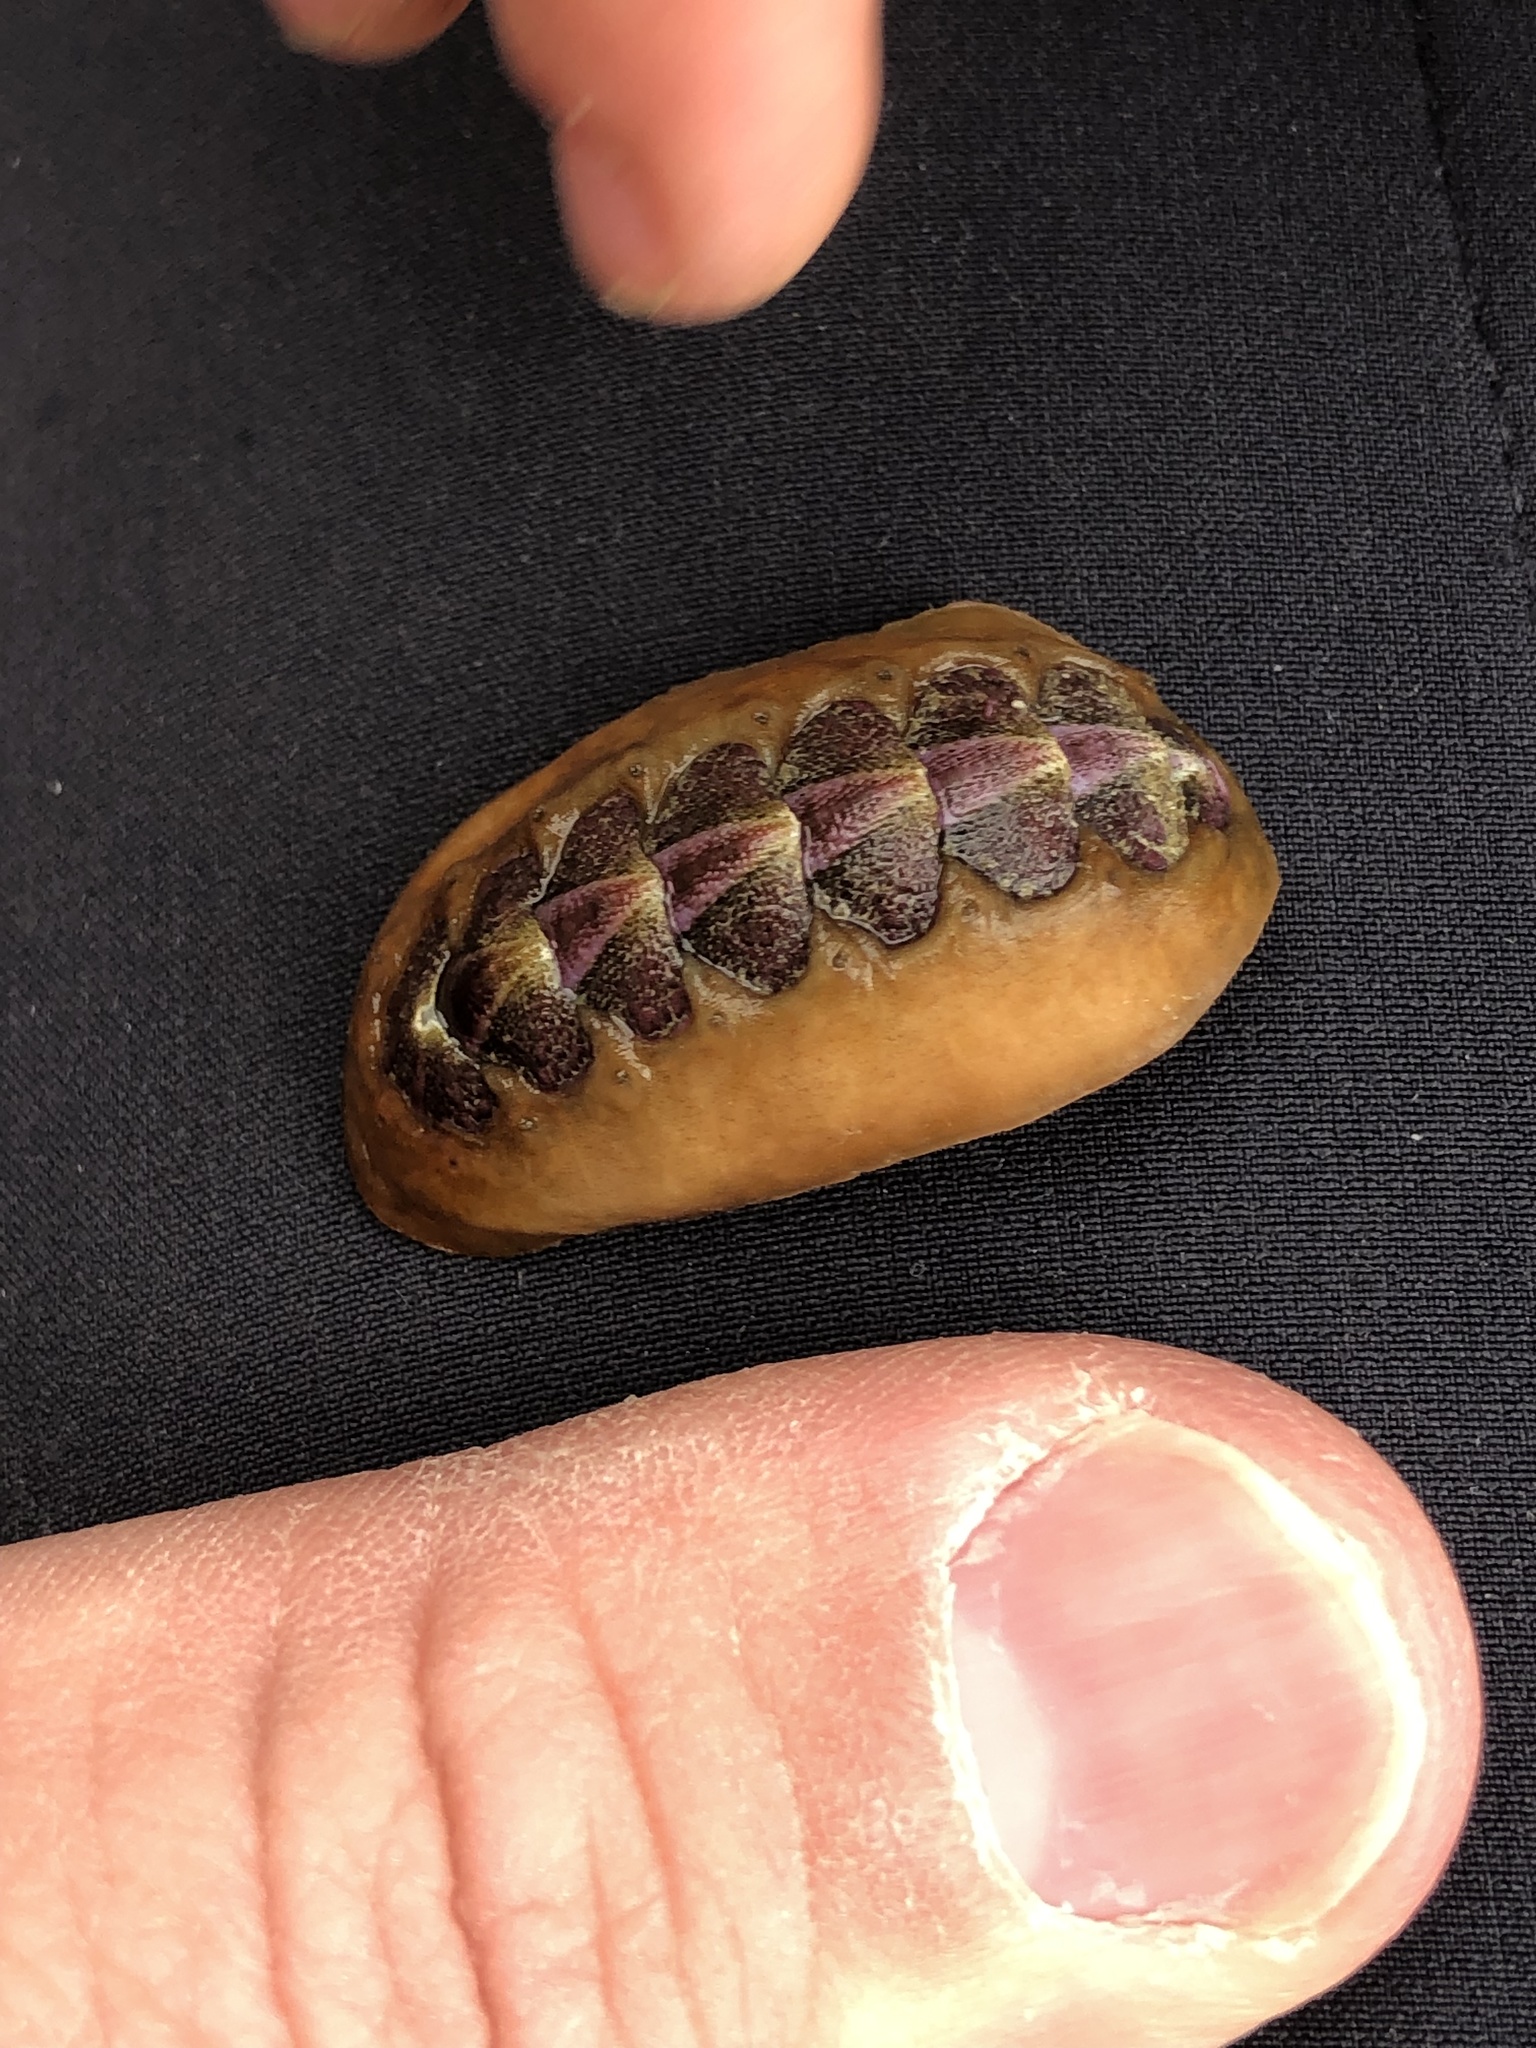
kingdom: Animalia
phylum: Mollusca
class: Polyplacophora
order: Chitonida
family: Acanthochitonidae
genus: Notoplax
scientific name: Notoplax violacea
